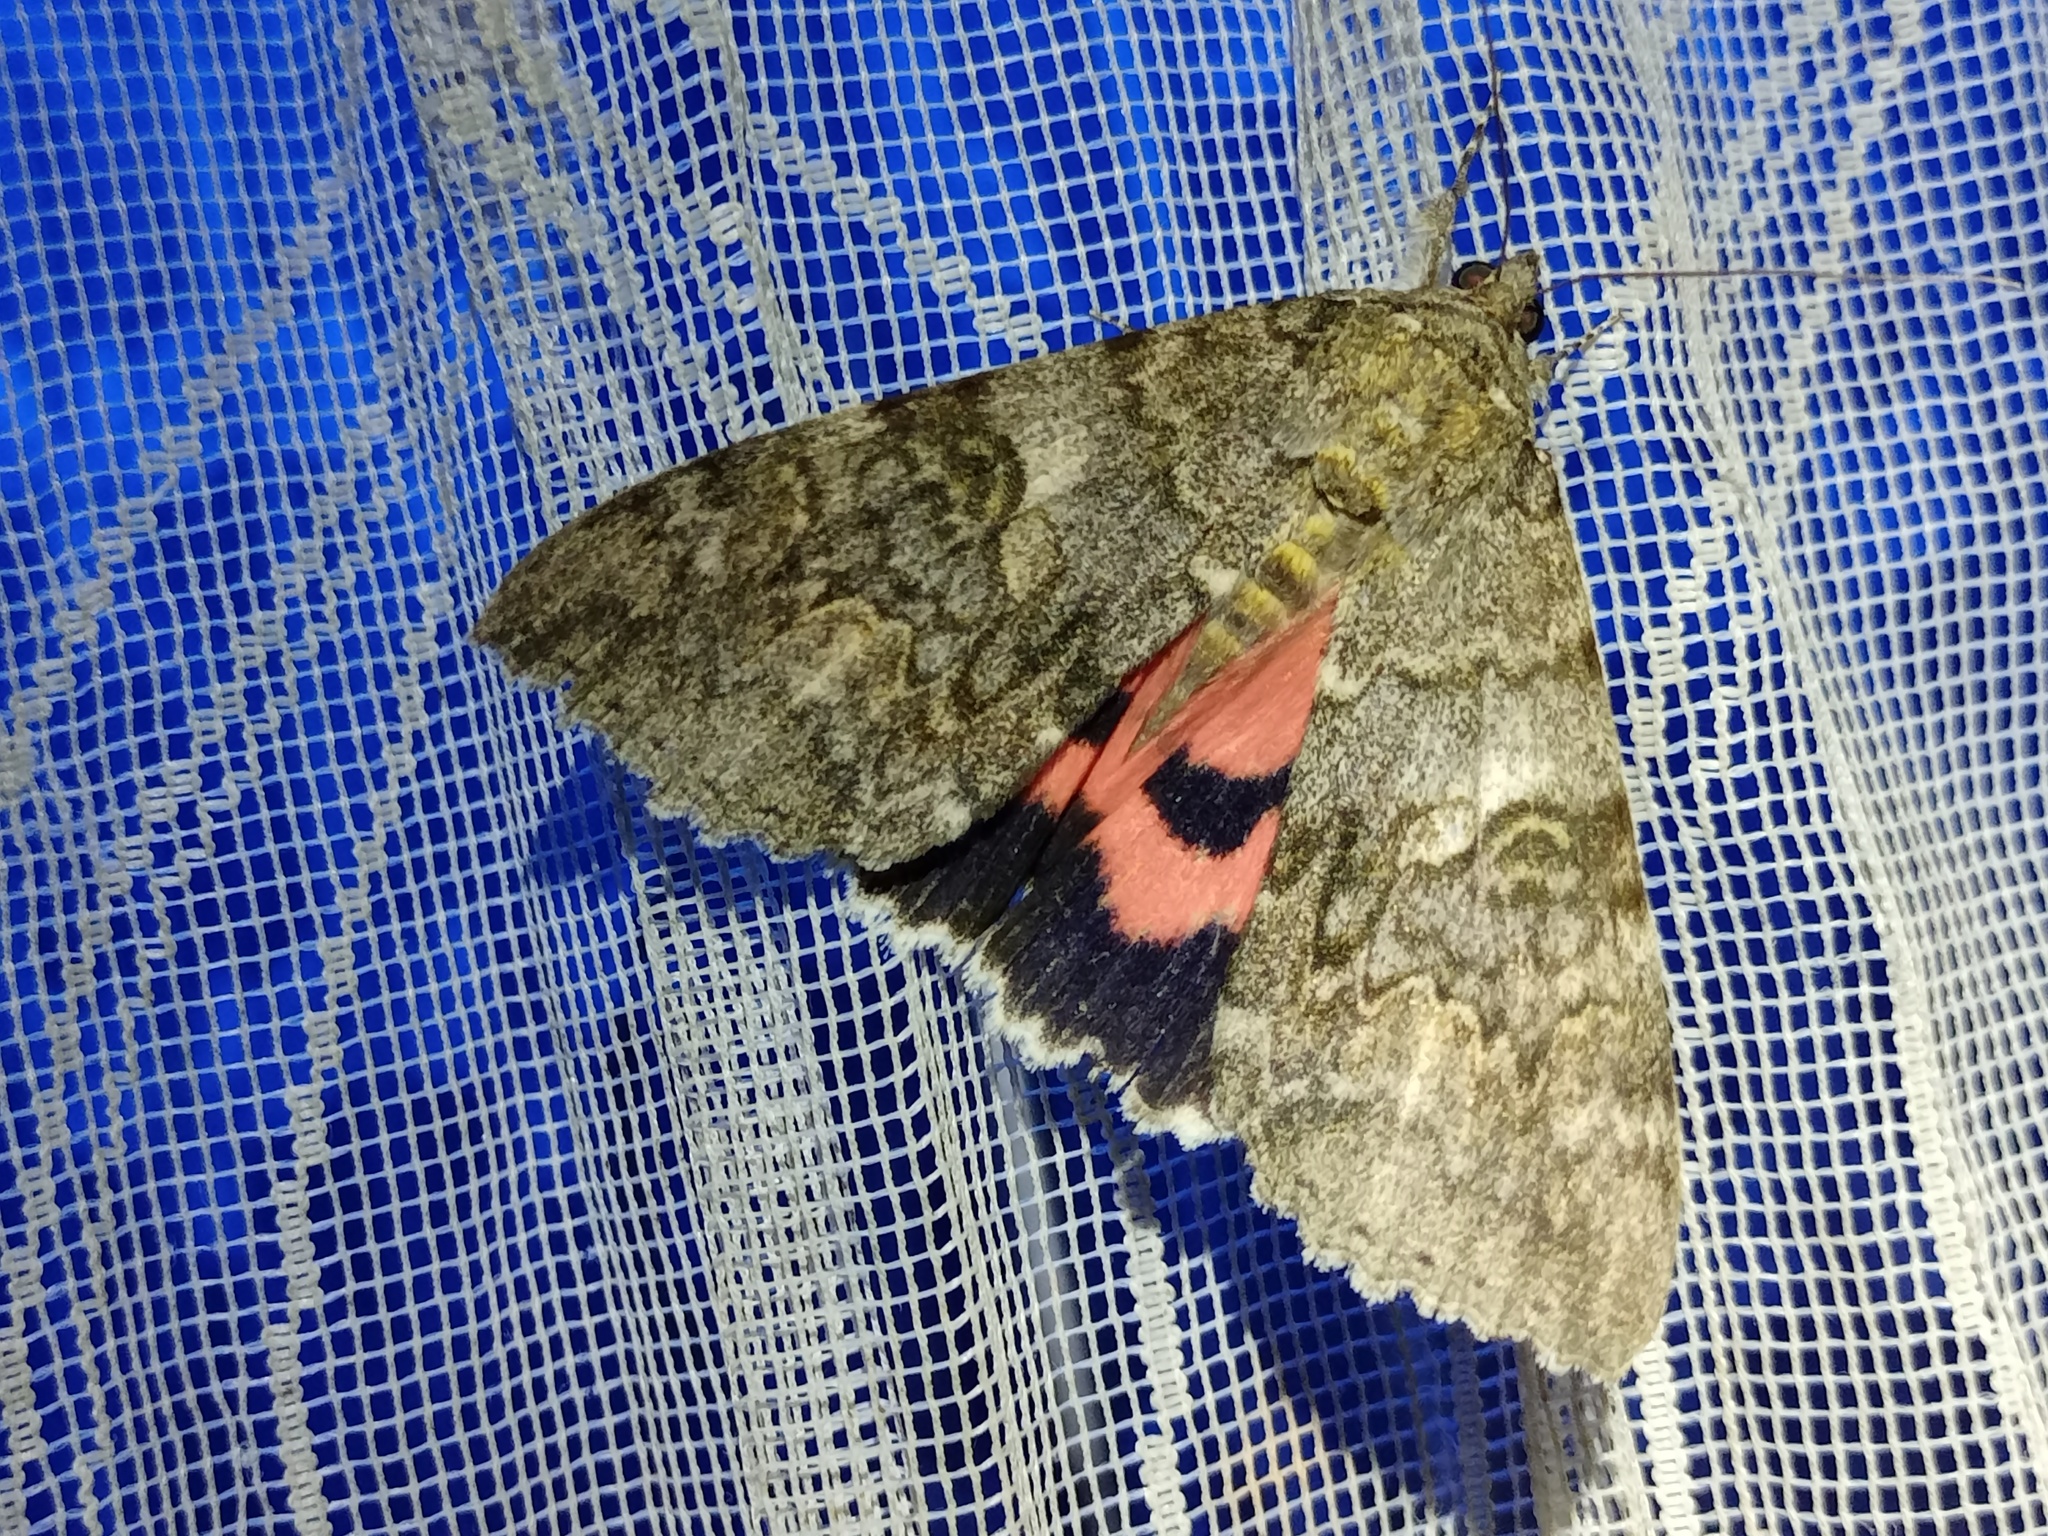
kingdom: Animalia
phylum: Arthropoda
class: Insecta
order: Lepidoptera
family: Erebidae
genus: Catocala
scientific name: Catocala nupta
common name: Red underwing
